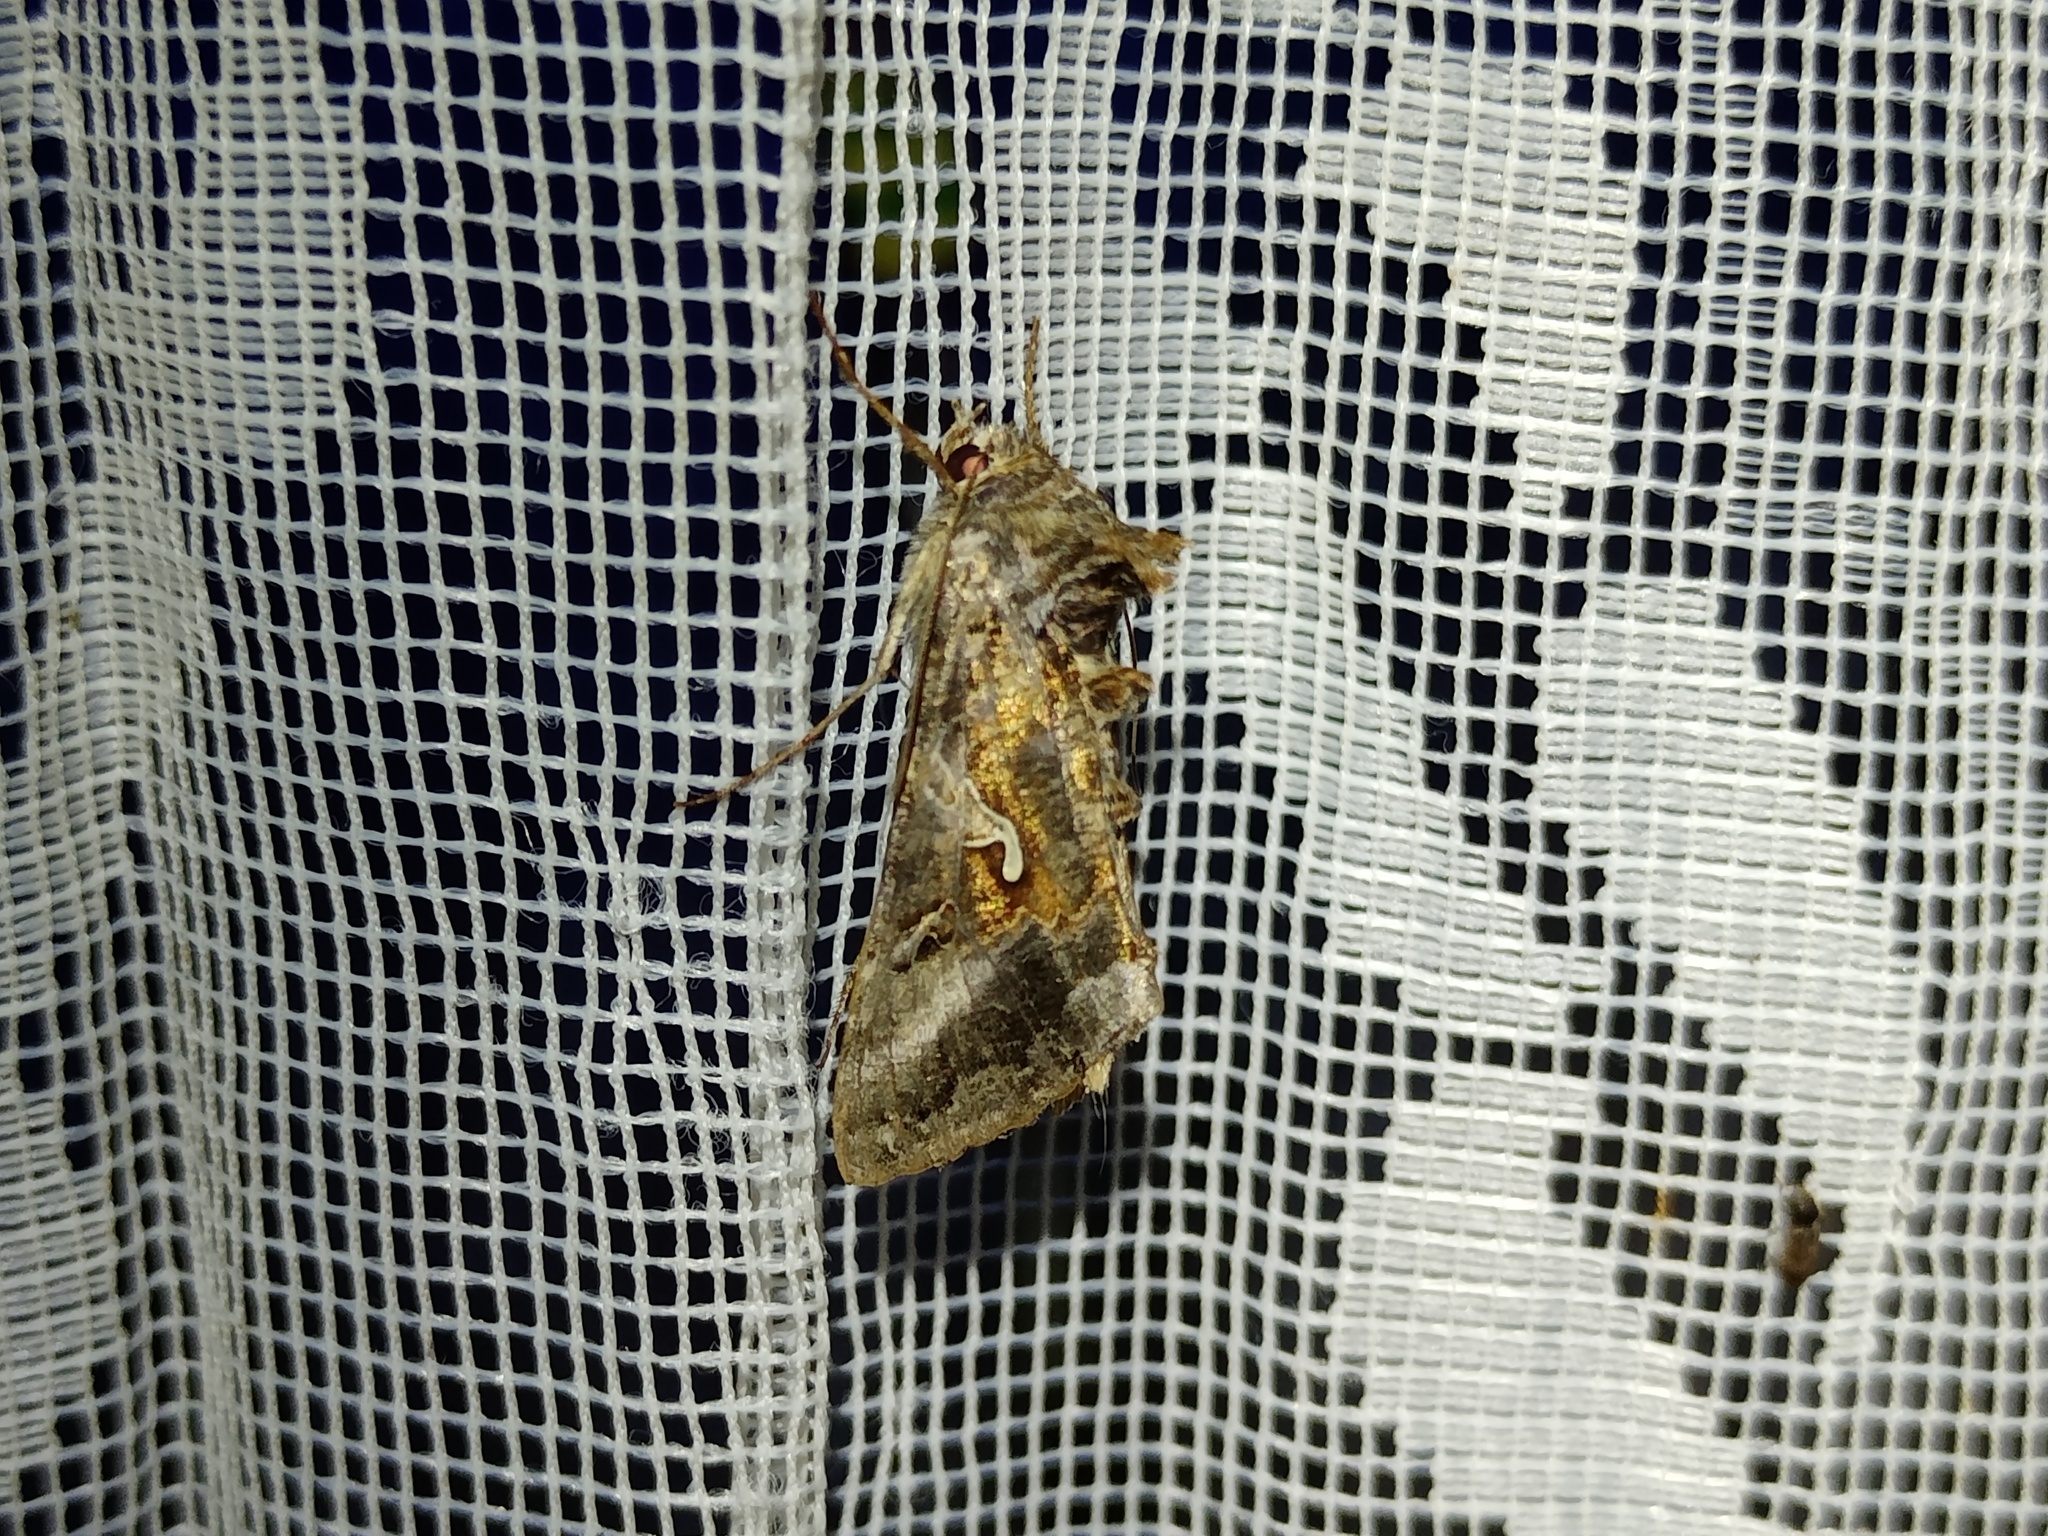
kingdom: Animalia
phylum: Arthropoda
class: Insecta
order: Lepidoptera
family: Noctuidae
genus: Autographa
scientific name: Autographa gamma
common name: Silver y
